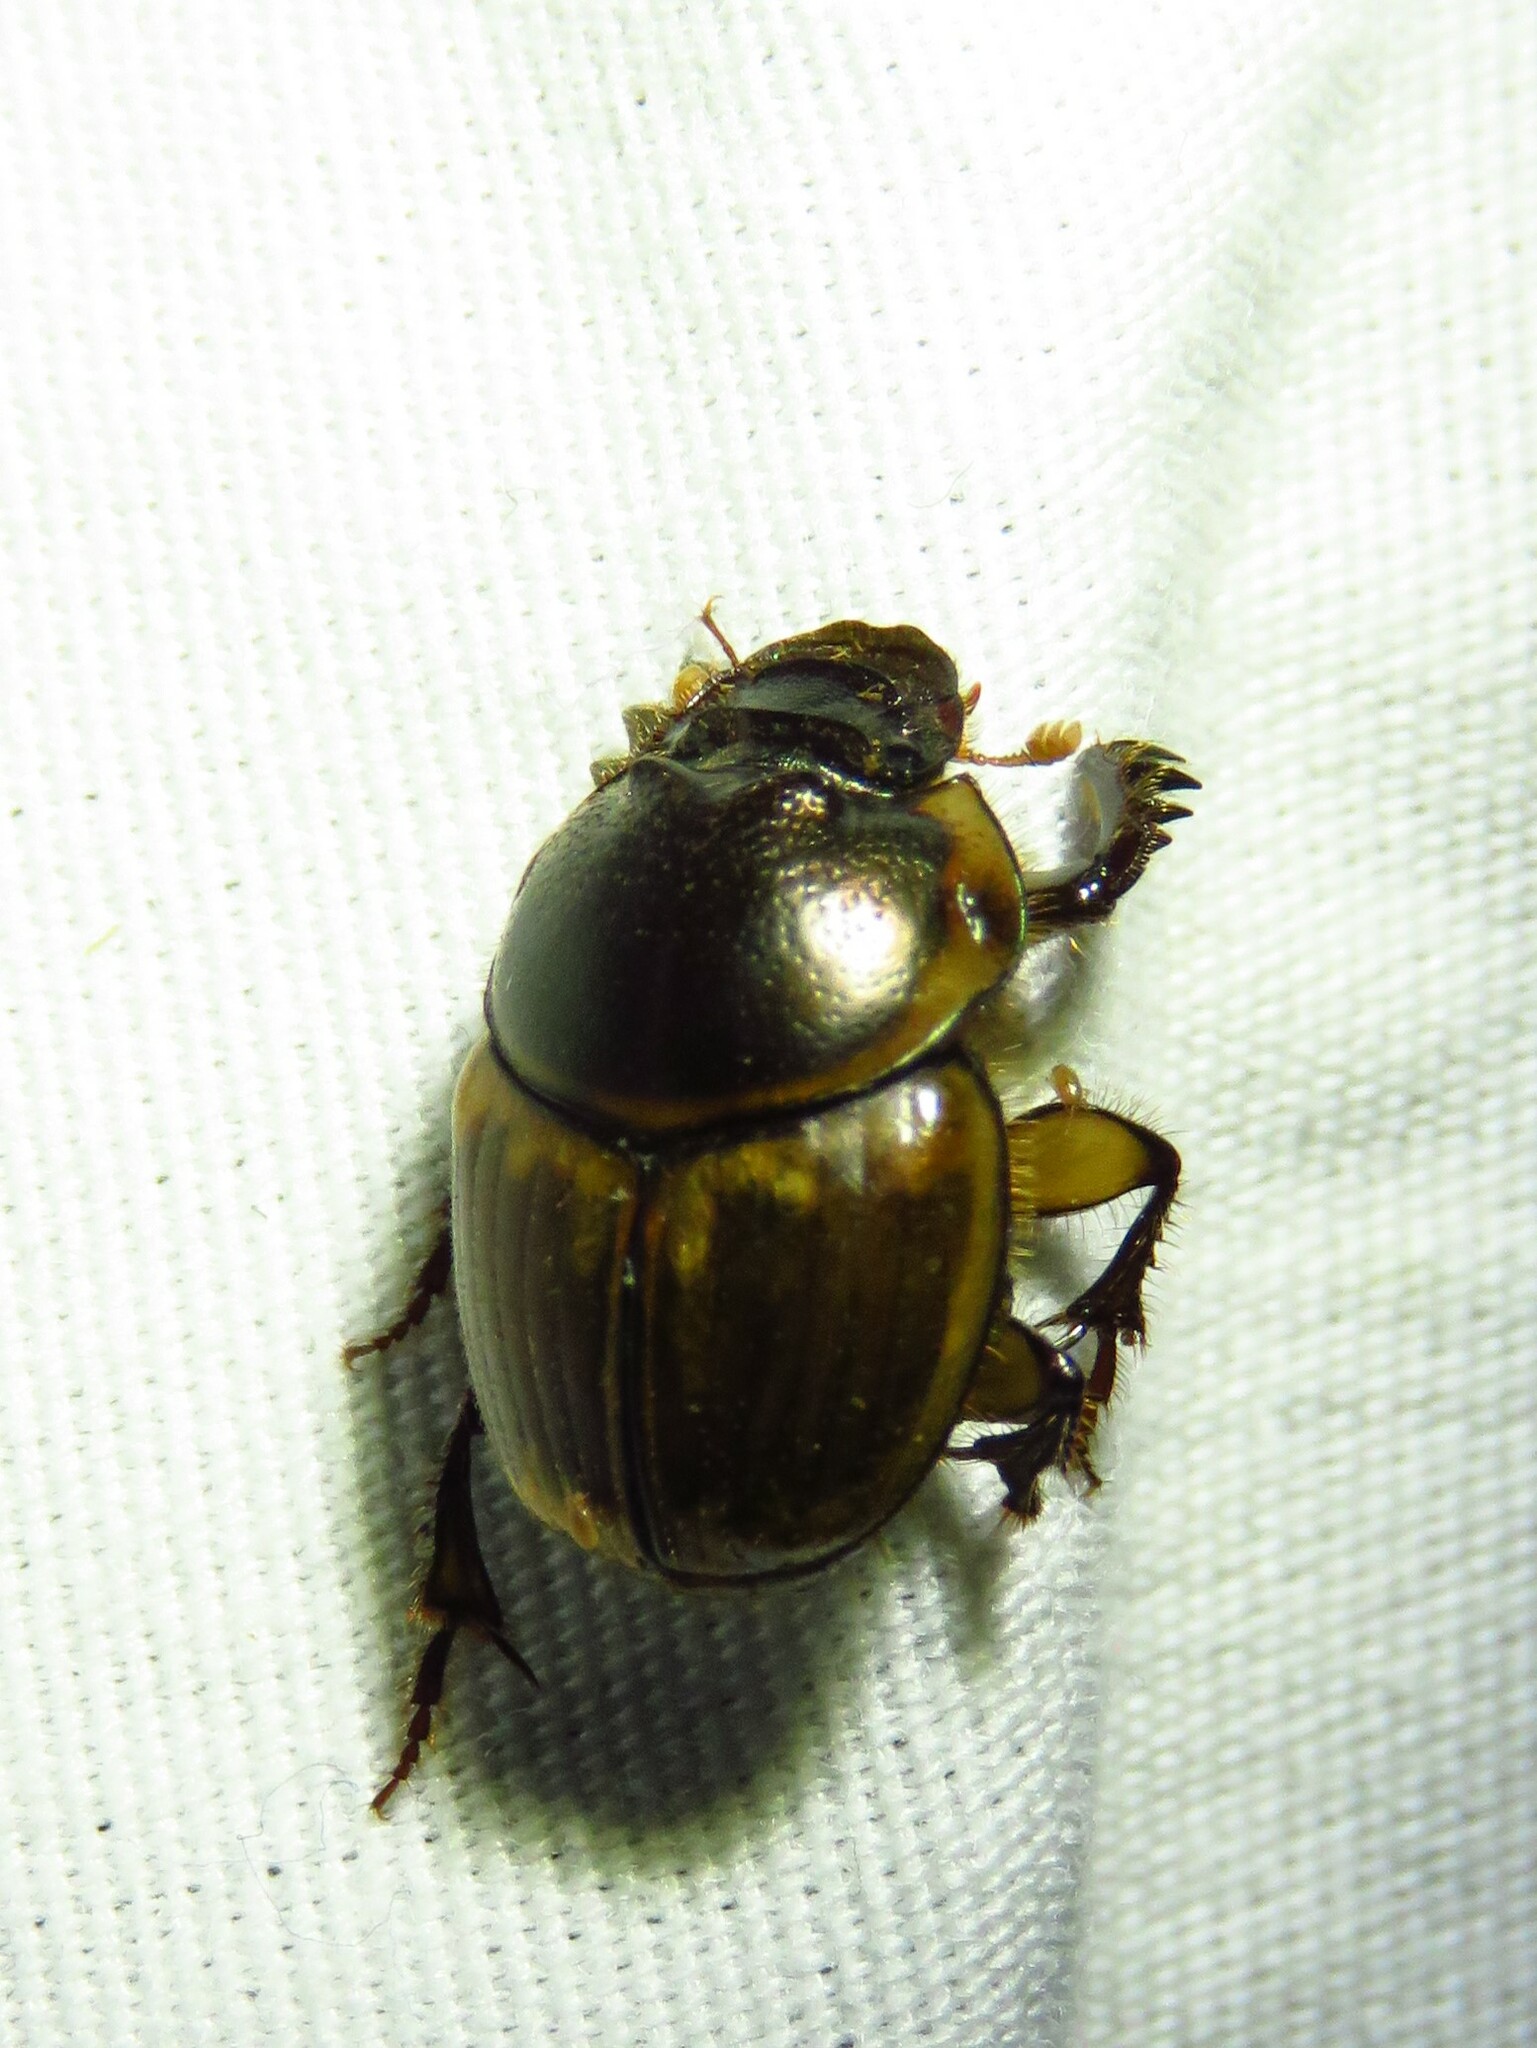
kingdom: Animalia
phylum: Arthropoda
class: Insecta
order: Coleoptera
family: Scarabaeidae
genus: Digitonthophagus
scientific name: Digitonthophagus gazella
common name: Brown dung beetle
